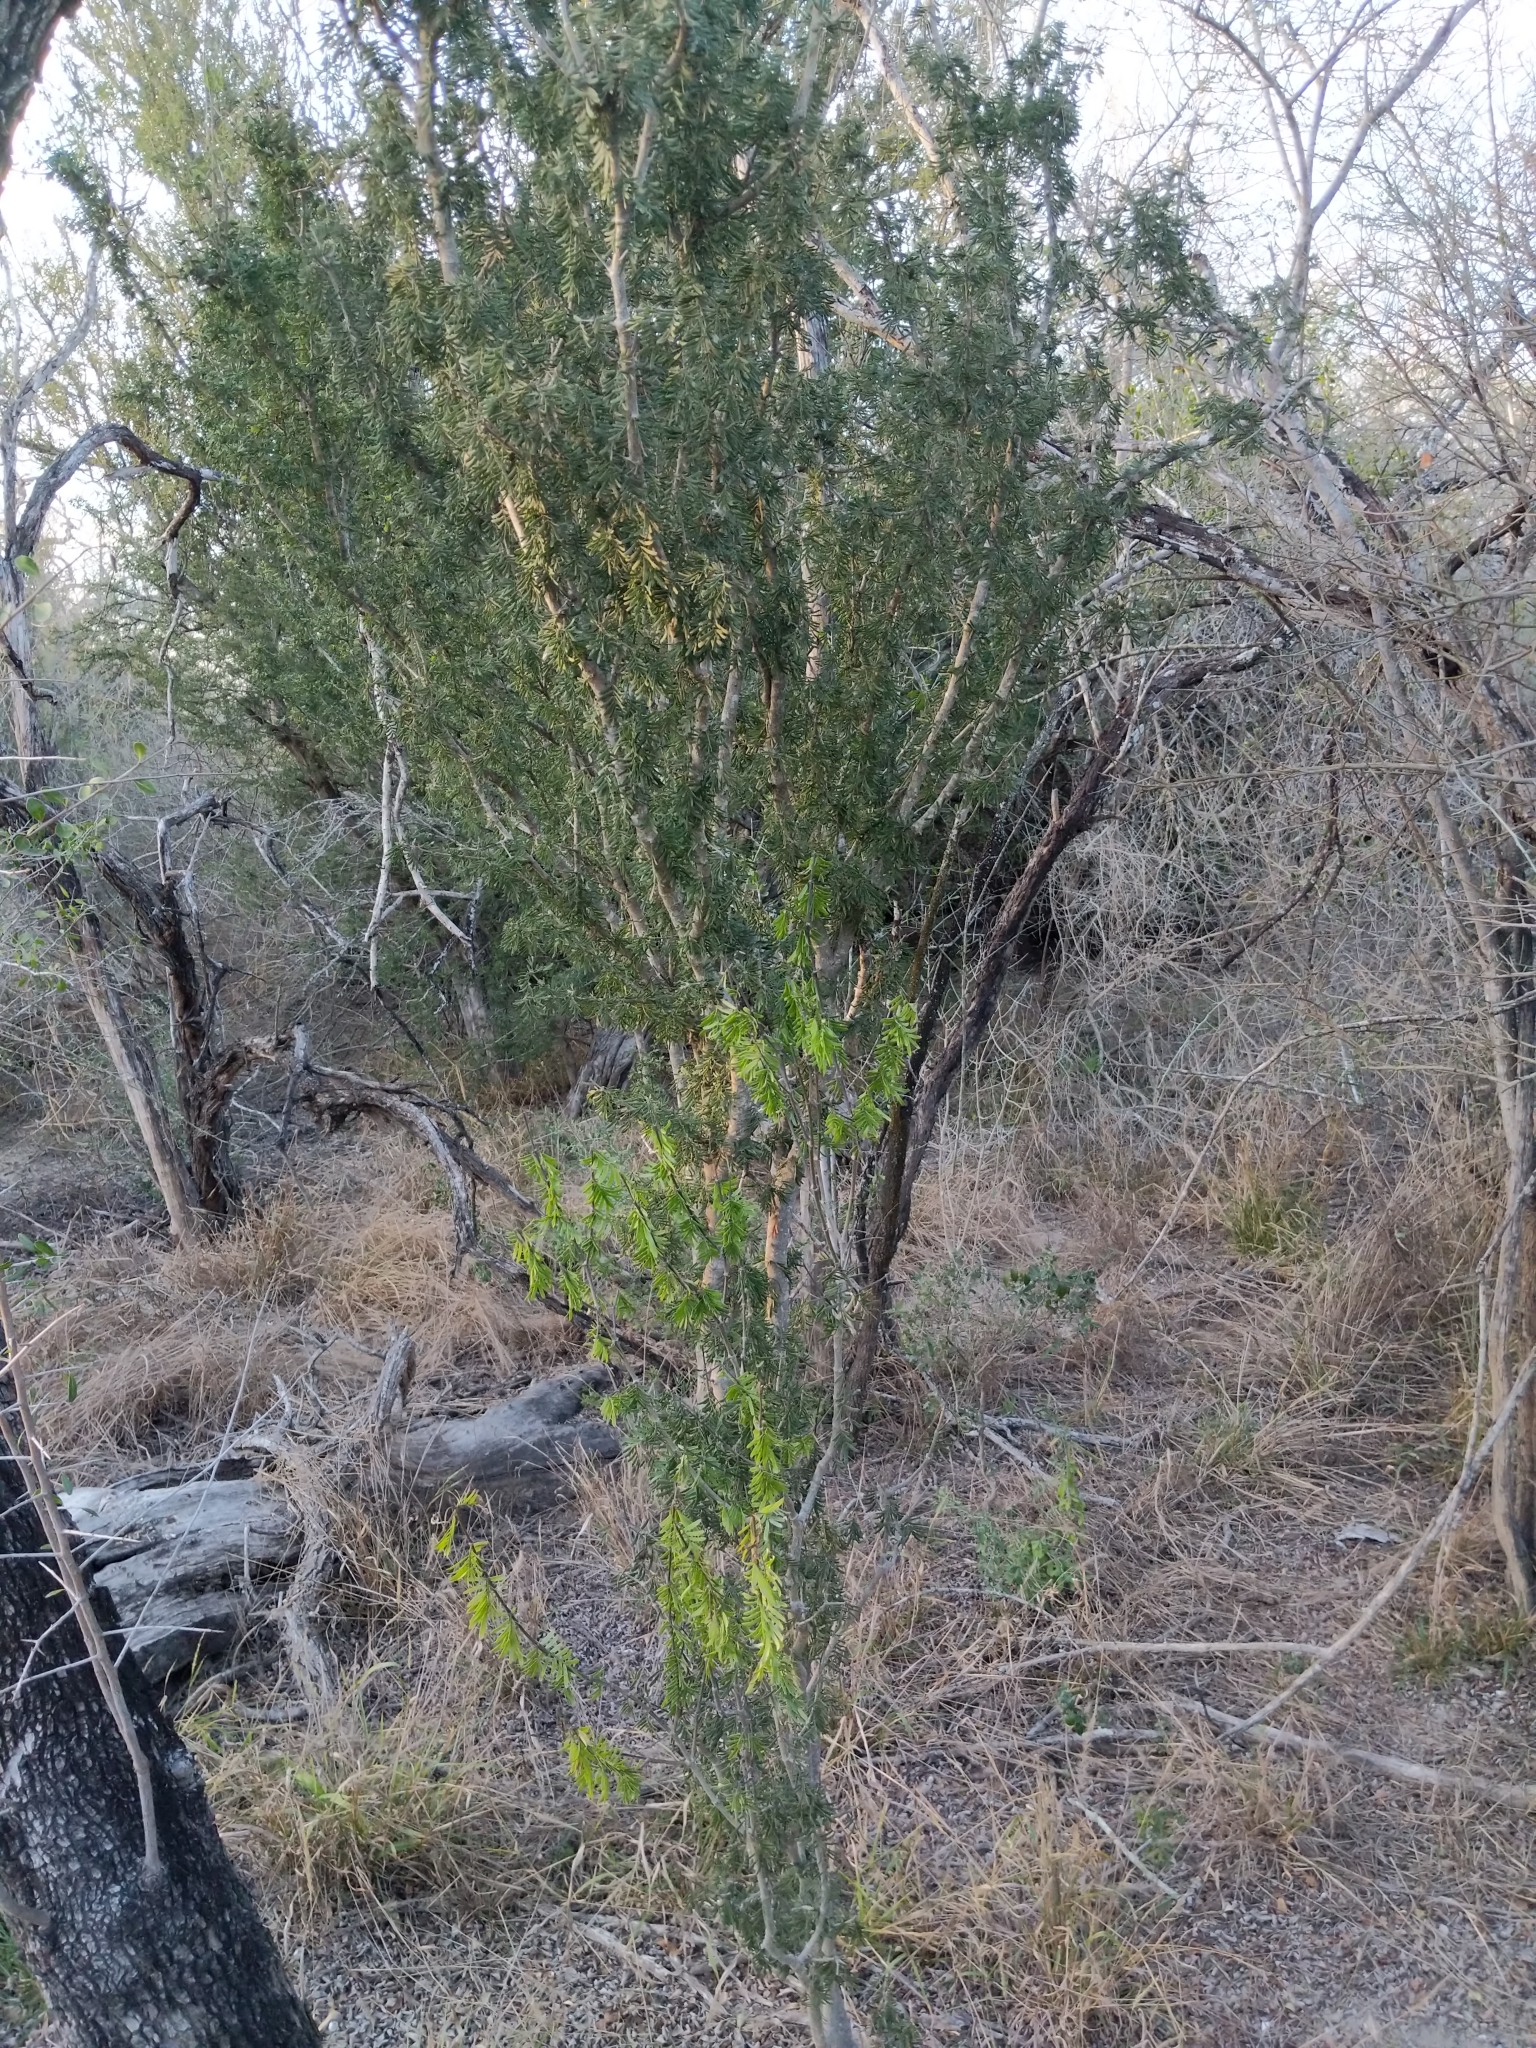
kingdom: Plantae
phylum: Tracheophyta
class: Magnoliopsida
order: Zygophyllales
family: Zygophyllaceae
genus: Porlieria
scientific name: Porlieria angustifolia
